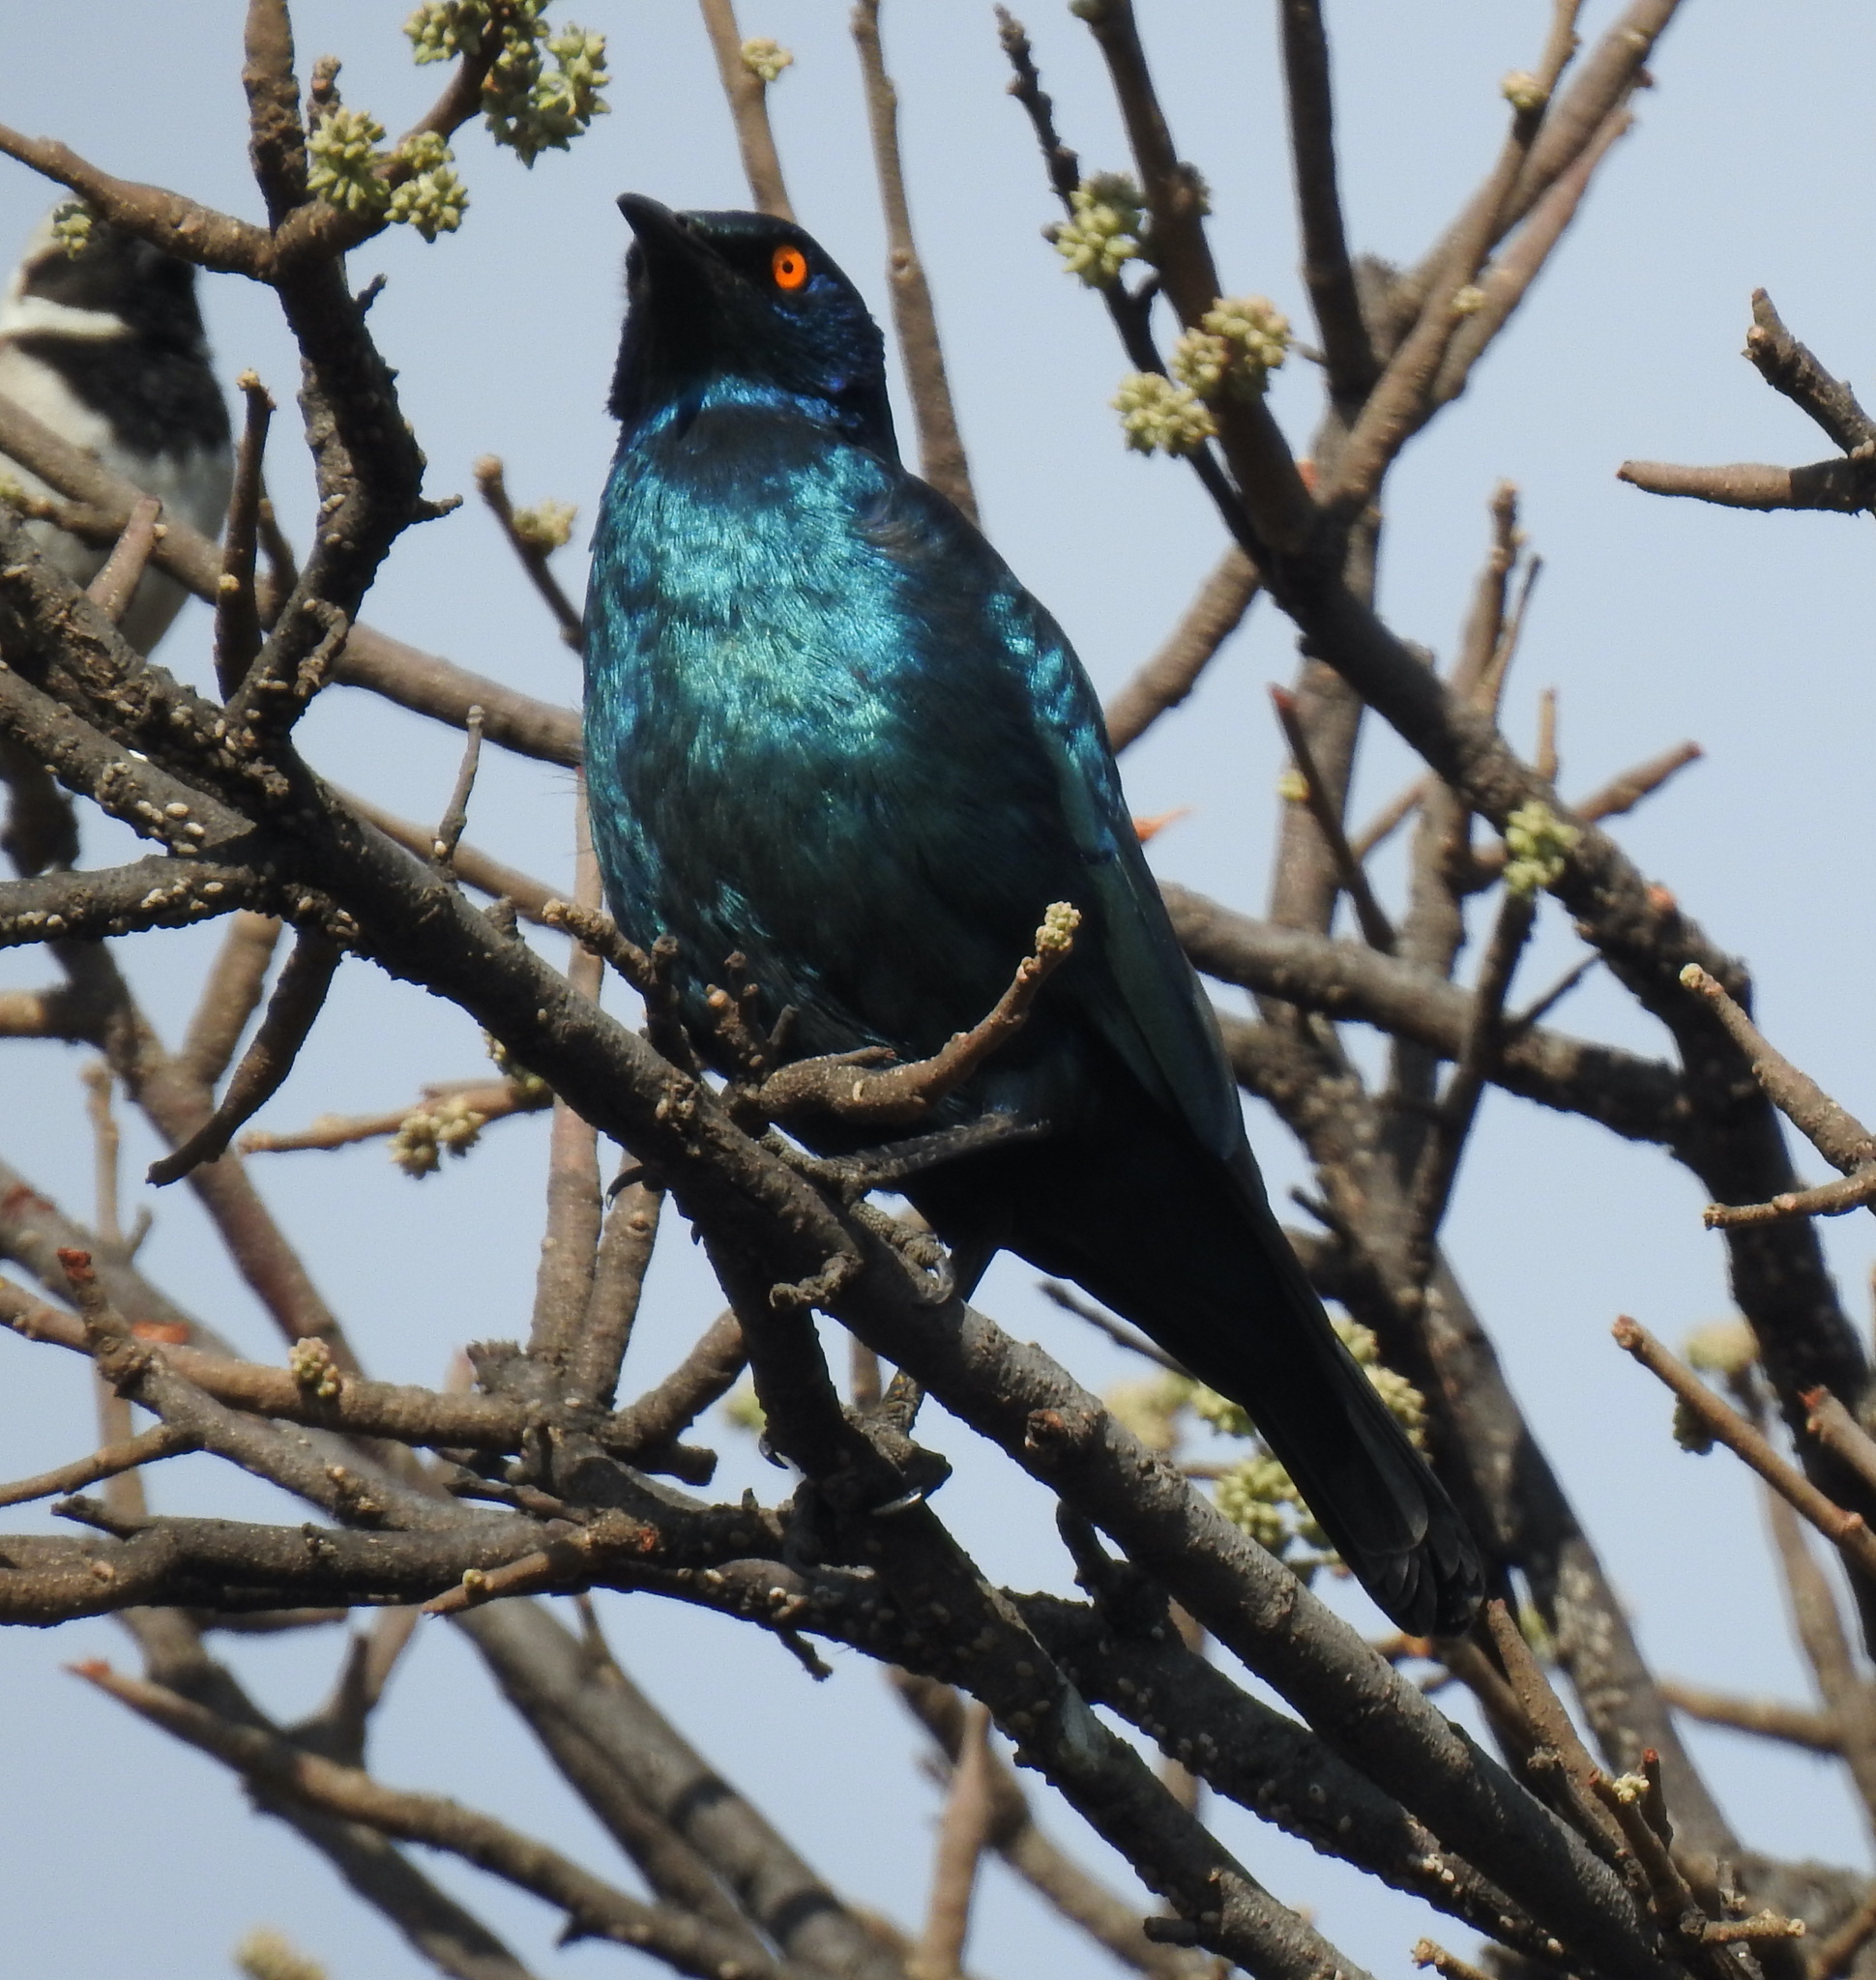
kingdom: Animalia
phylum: Chordata
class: Aves
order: Passeriformes
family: Sturnidae
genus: Lamprotornis
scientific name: Lamprotornis nitens
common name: Cape starling
